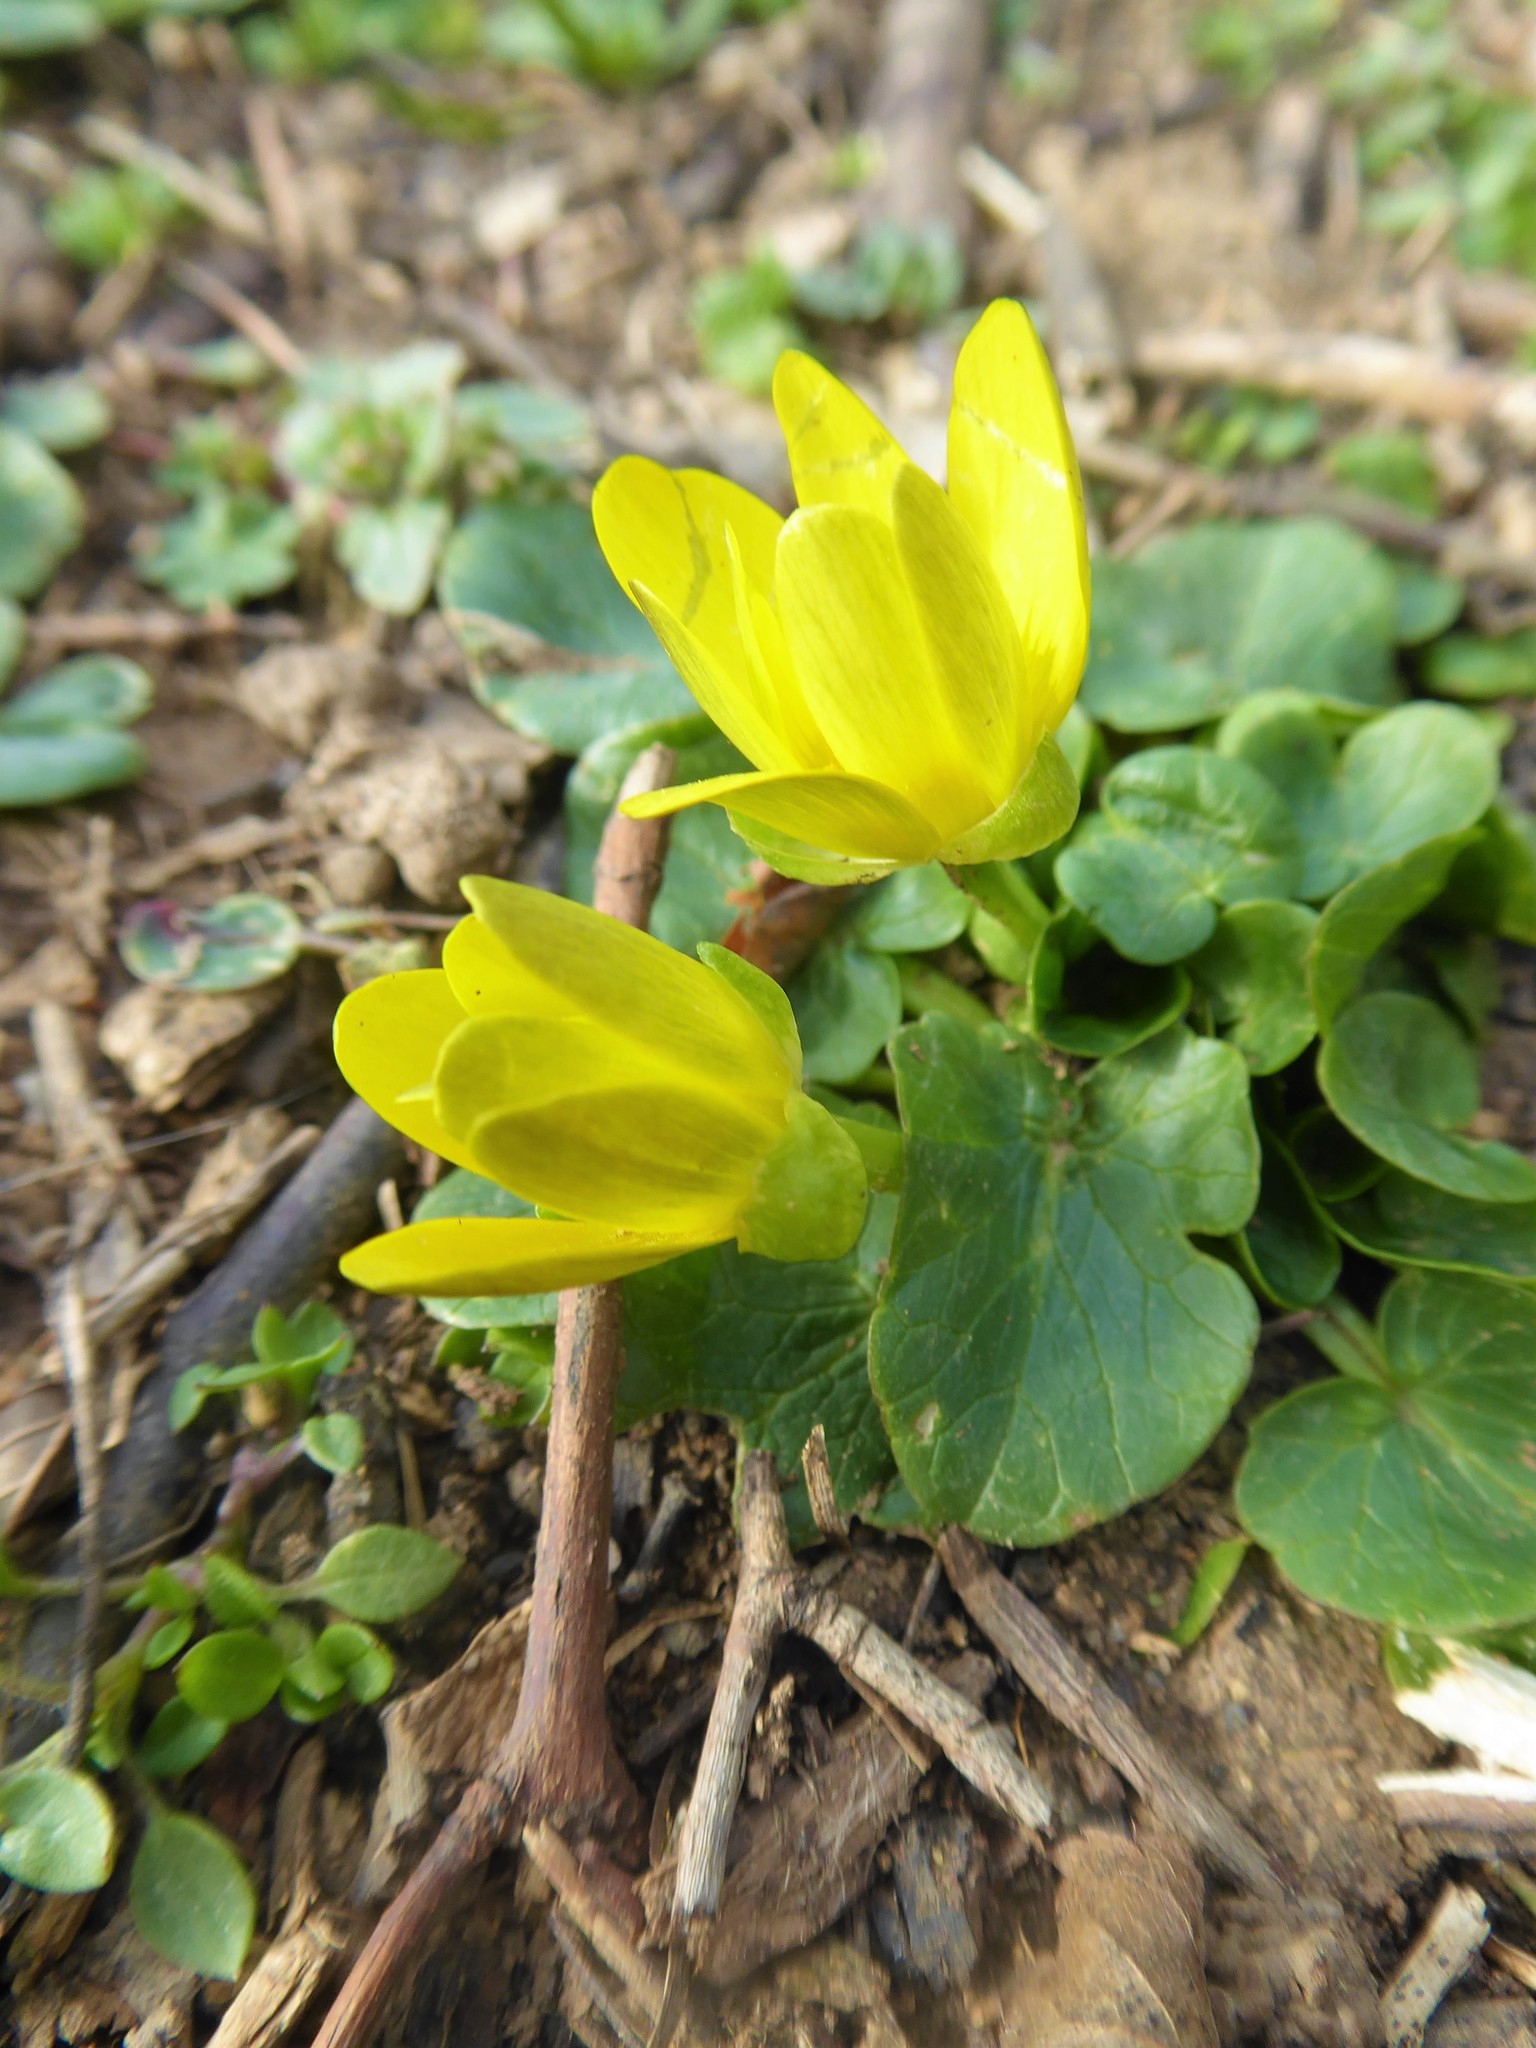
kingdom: Plantae
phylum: Tracheophyta
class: Magnoliopsida
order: Ranunculales
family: Ranunculaceae
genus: Ficaria
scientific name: Ficaria verna
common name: Lesser celandine
